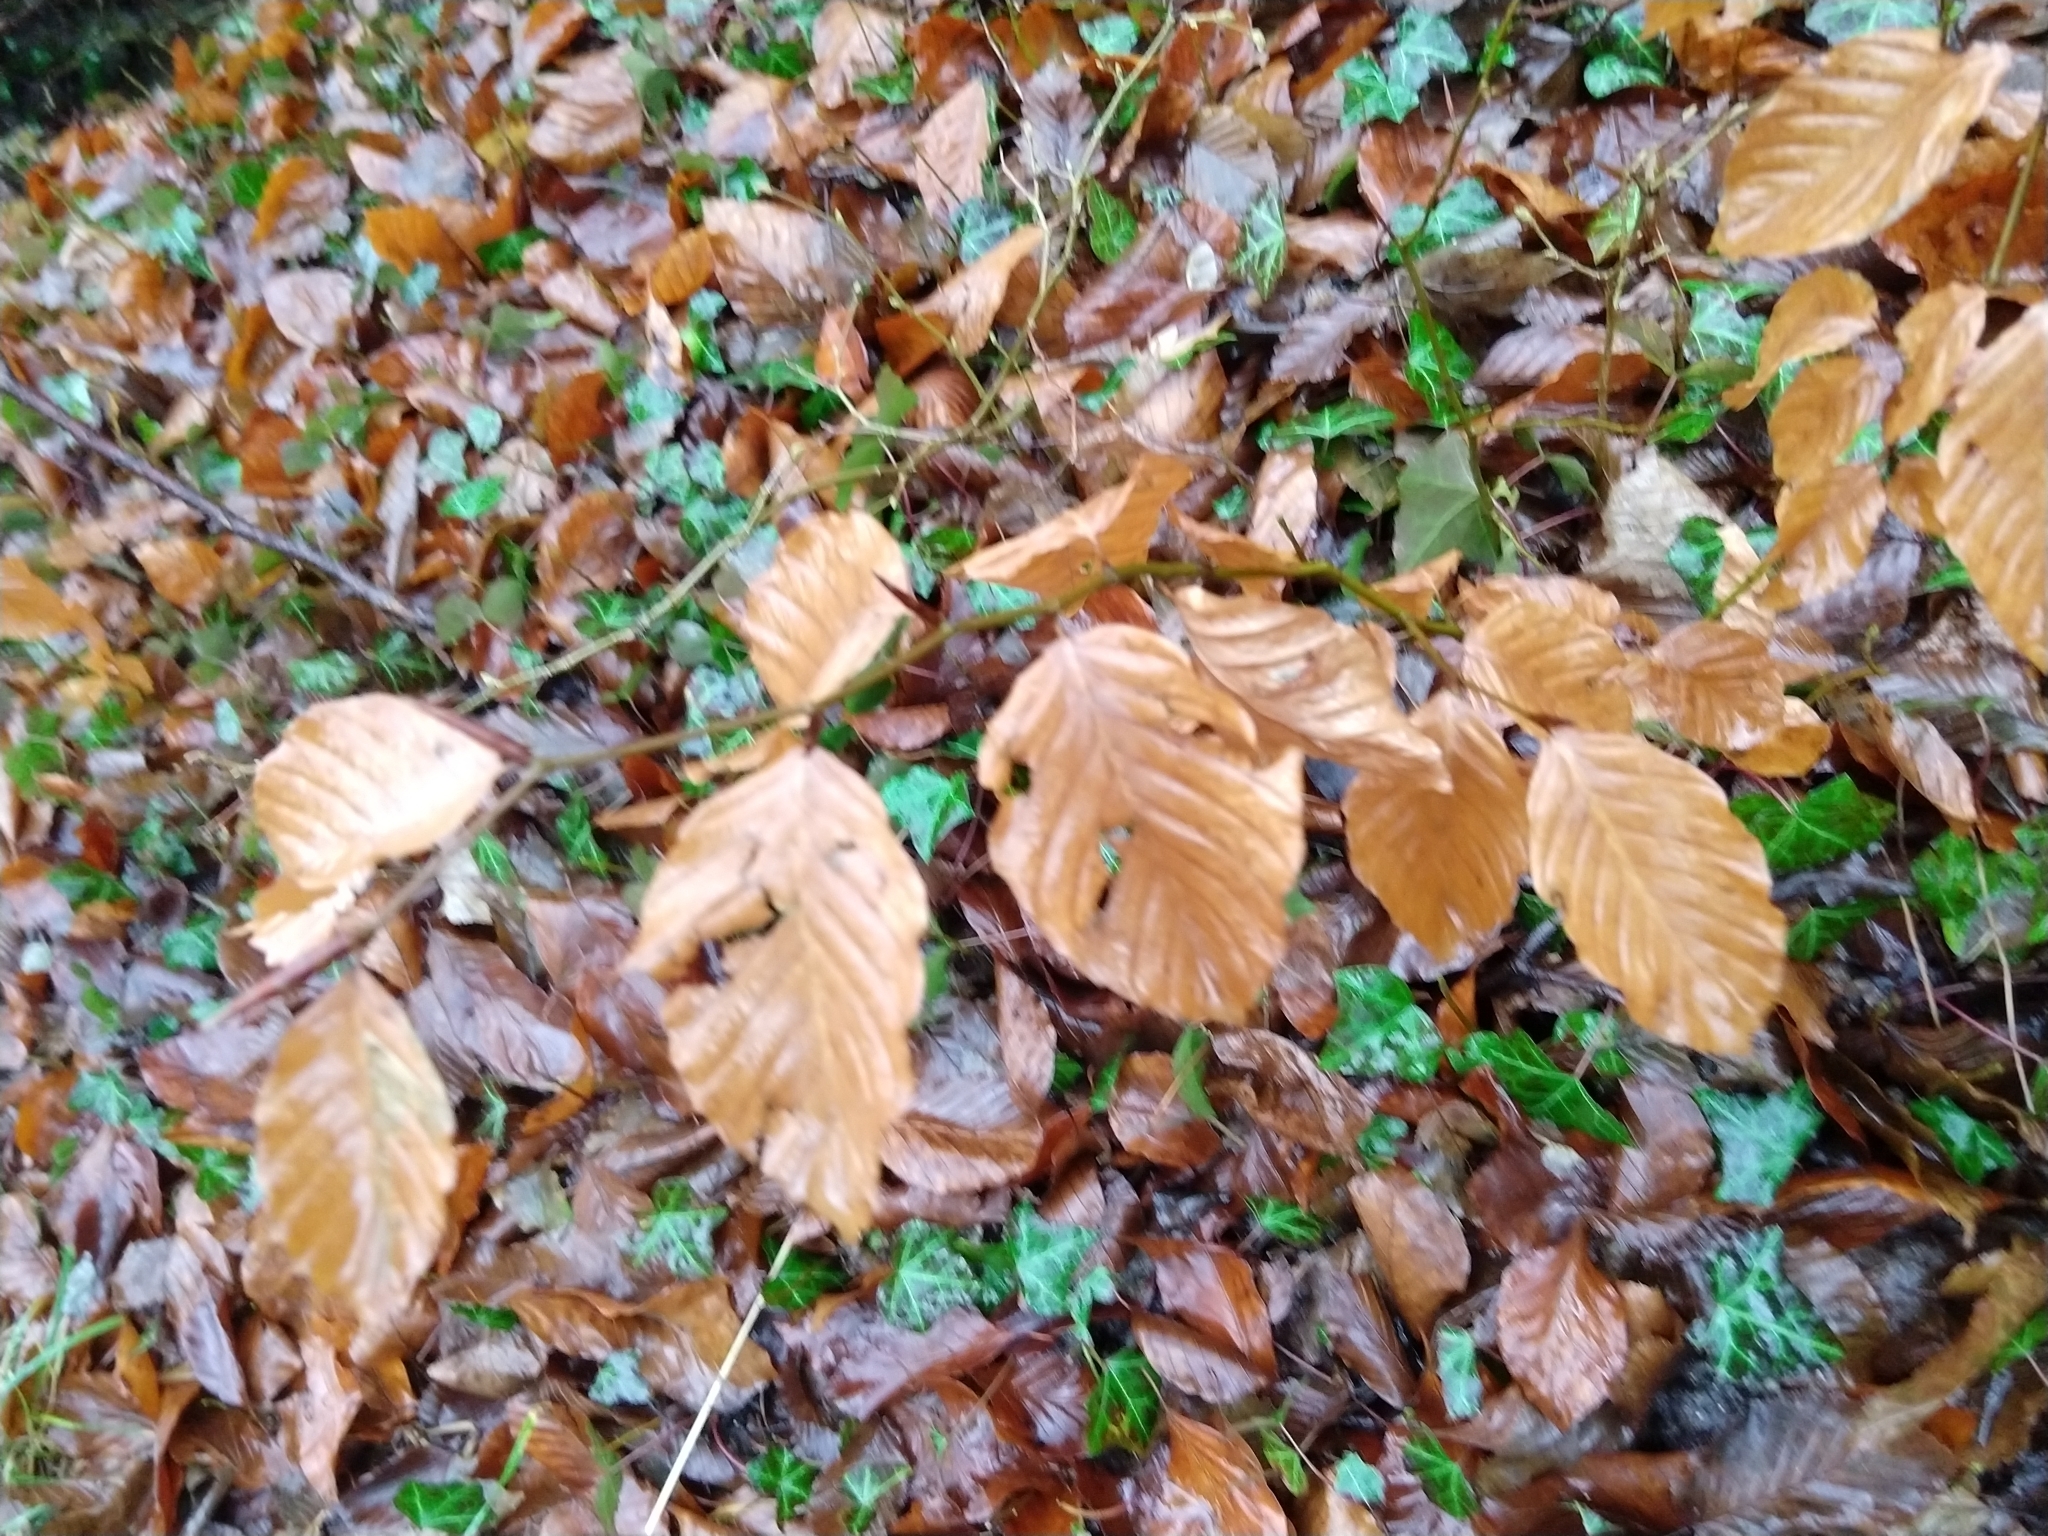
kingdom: Plantae
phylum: Tracheophyta
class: Magnoliopsida
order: Fagales
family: Fagaceae
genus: Fagus
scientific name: Fagus sylvatica
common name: Beech
